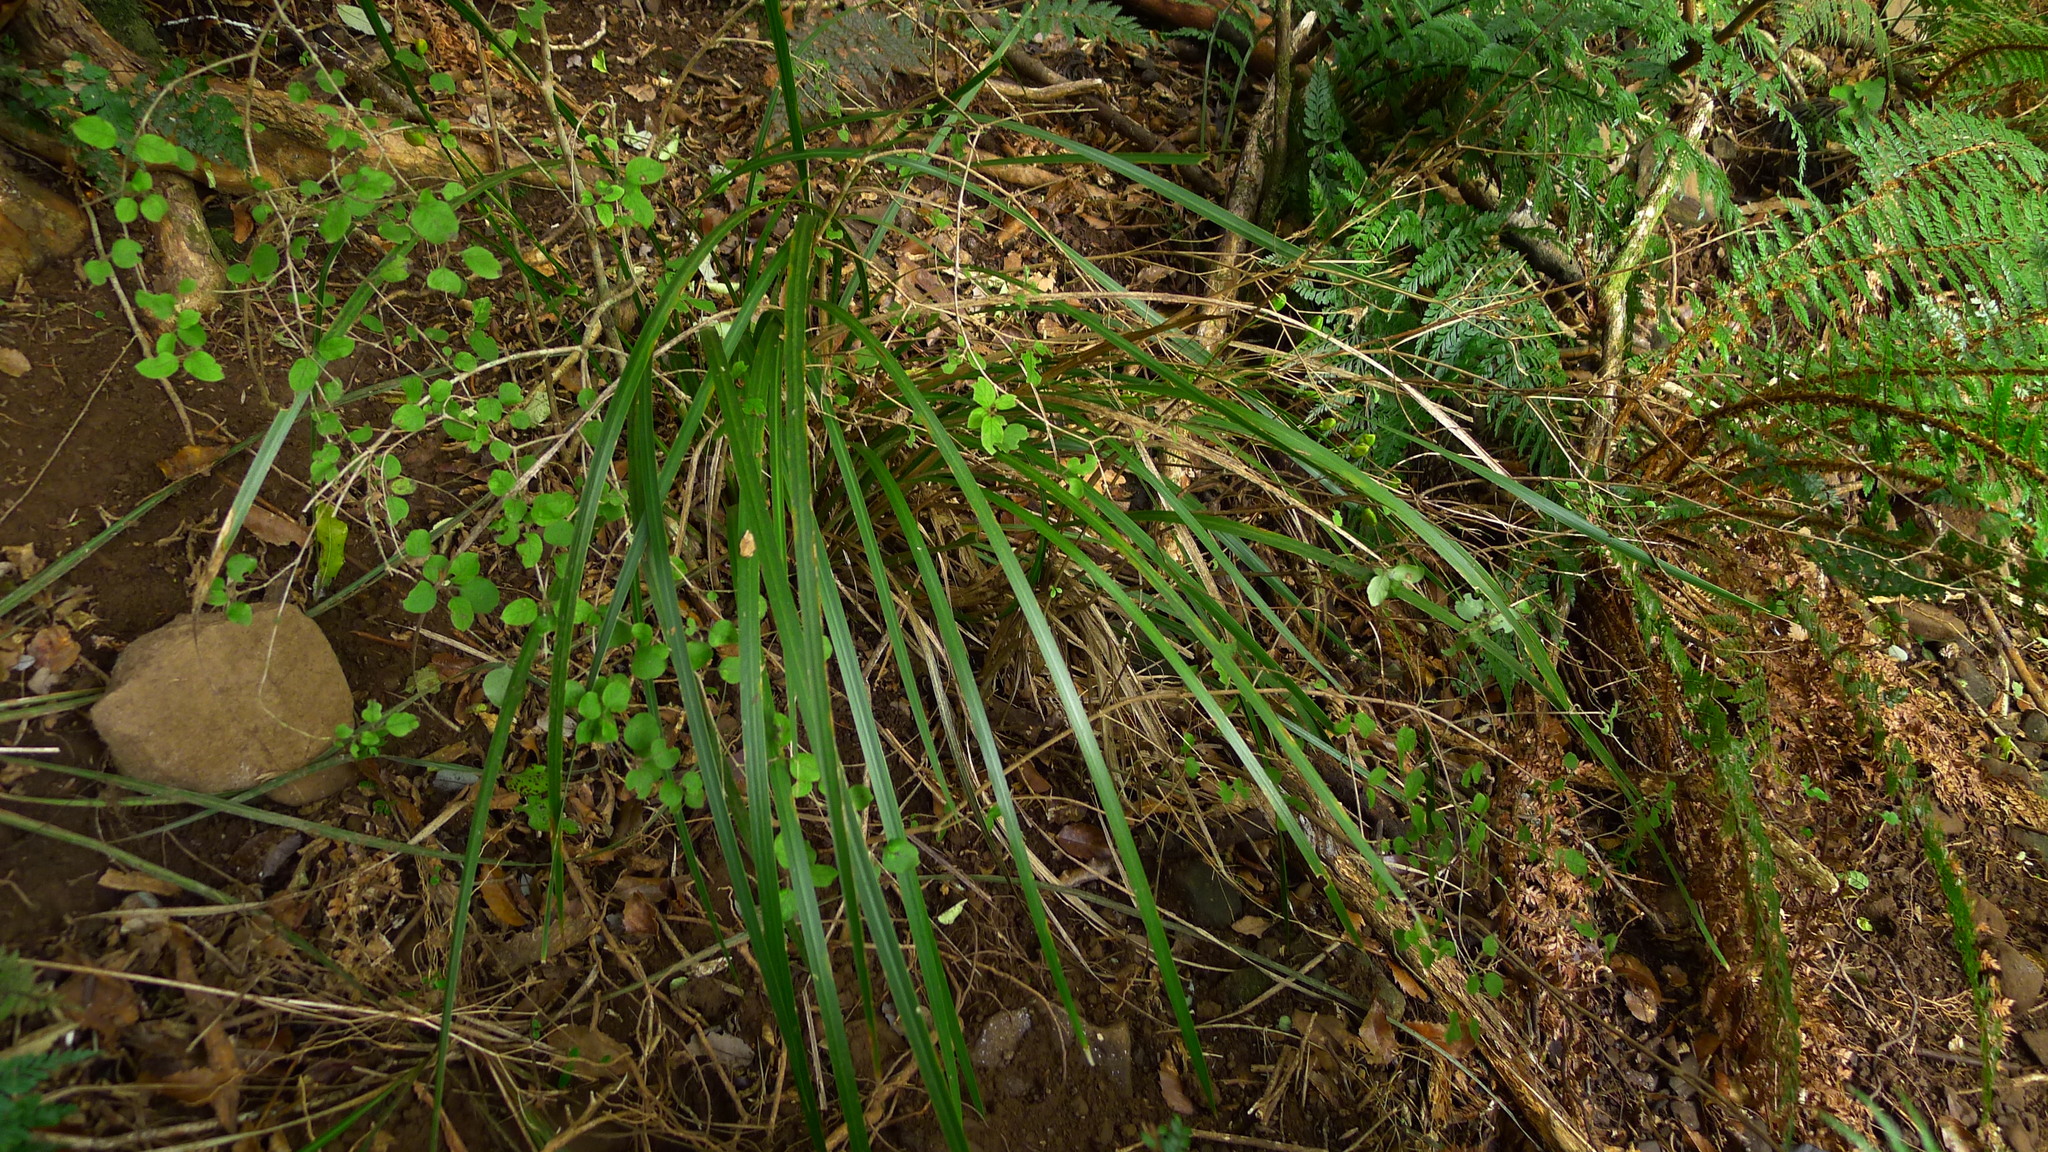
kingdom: Plantae
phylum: Tracheophyta
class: Liliopsida
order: Asparagales
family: Iridaceae
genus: Libertia
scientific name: Libertia ixioides
